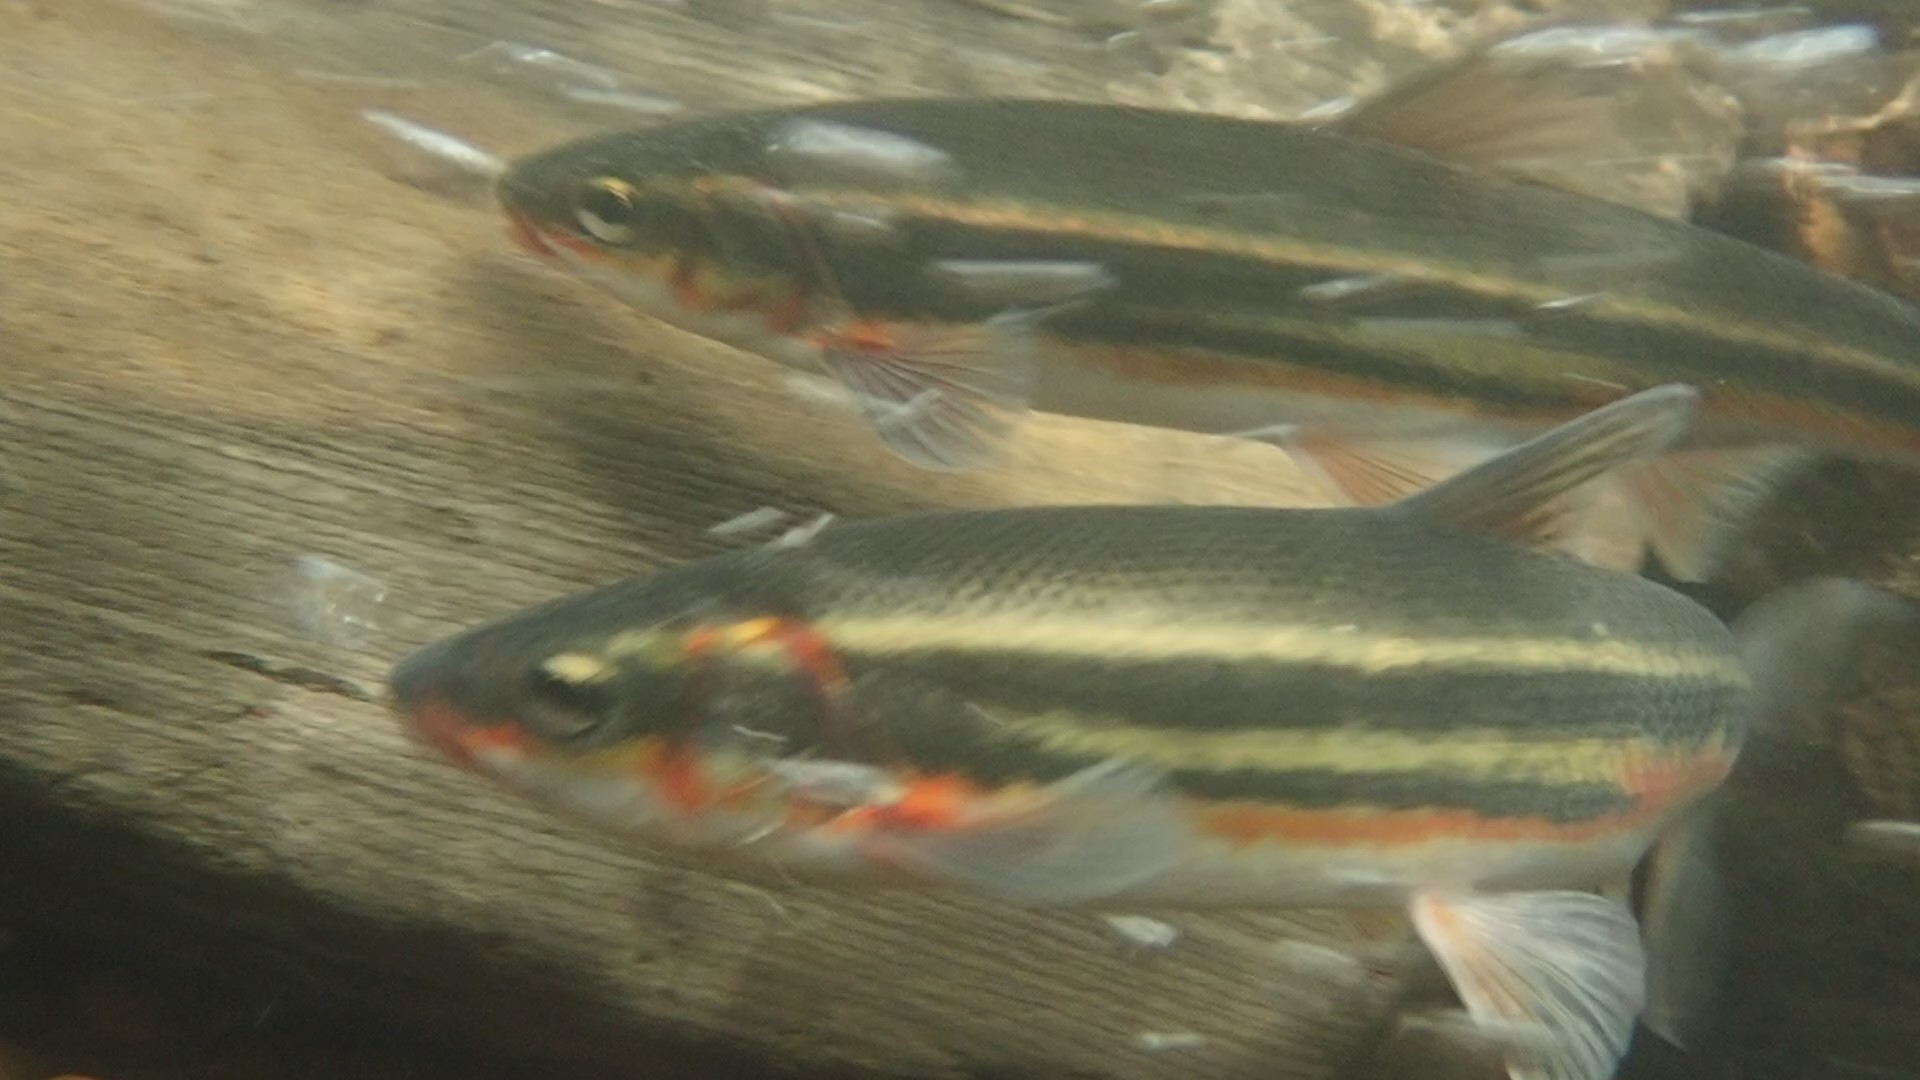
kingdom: Animalia
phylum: Chordata
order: Cypriniformes
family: Cyprinidae
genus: Mylocheilus
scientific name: Mylocheilus caurinus
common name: Peamouth
